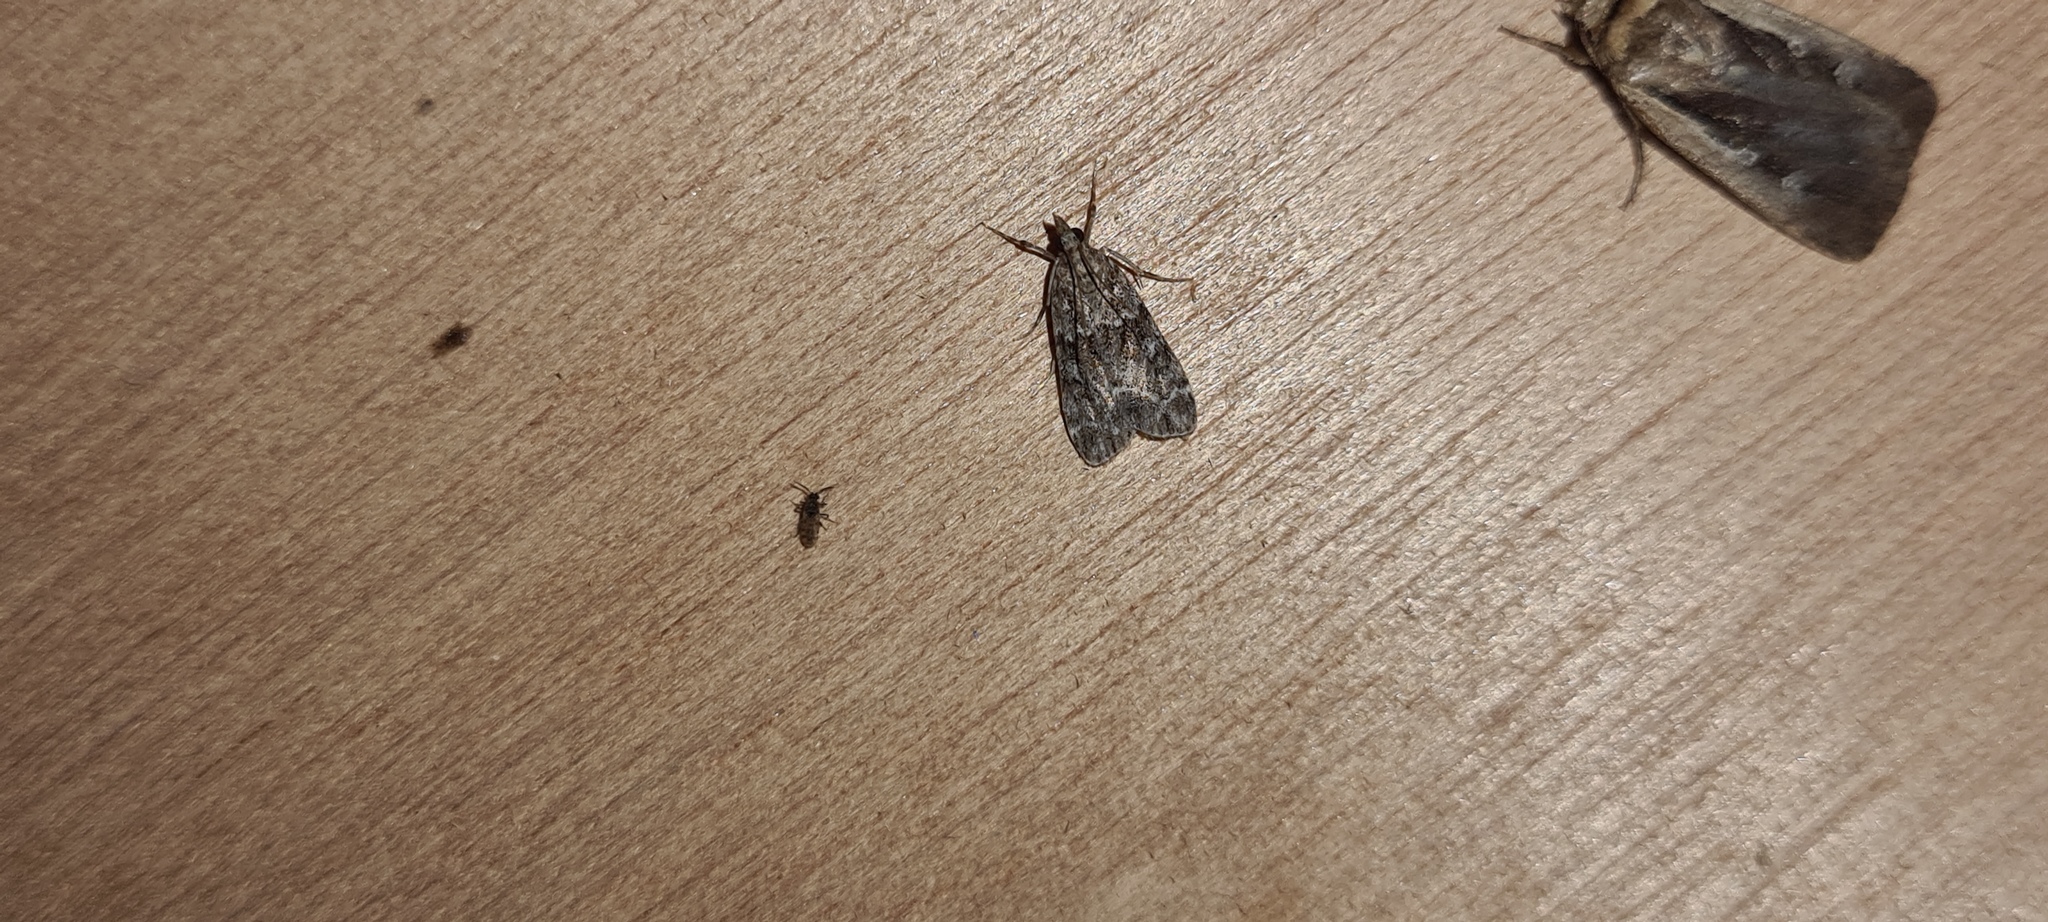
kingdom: Animalia
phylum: Arthropoda
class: Insecta
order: Lepidoptera
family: Crambidae
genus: Eudonia
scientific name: Eudonia mercurella
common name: Small grey
